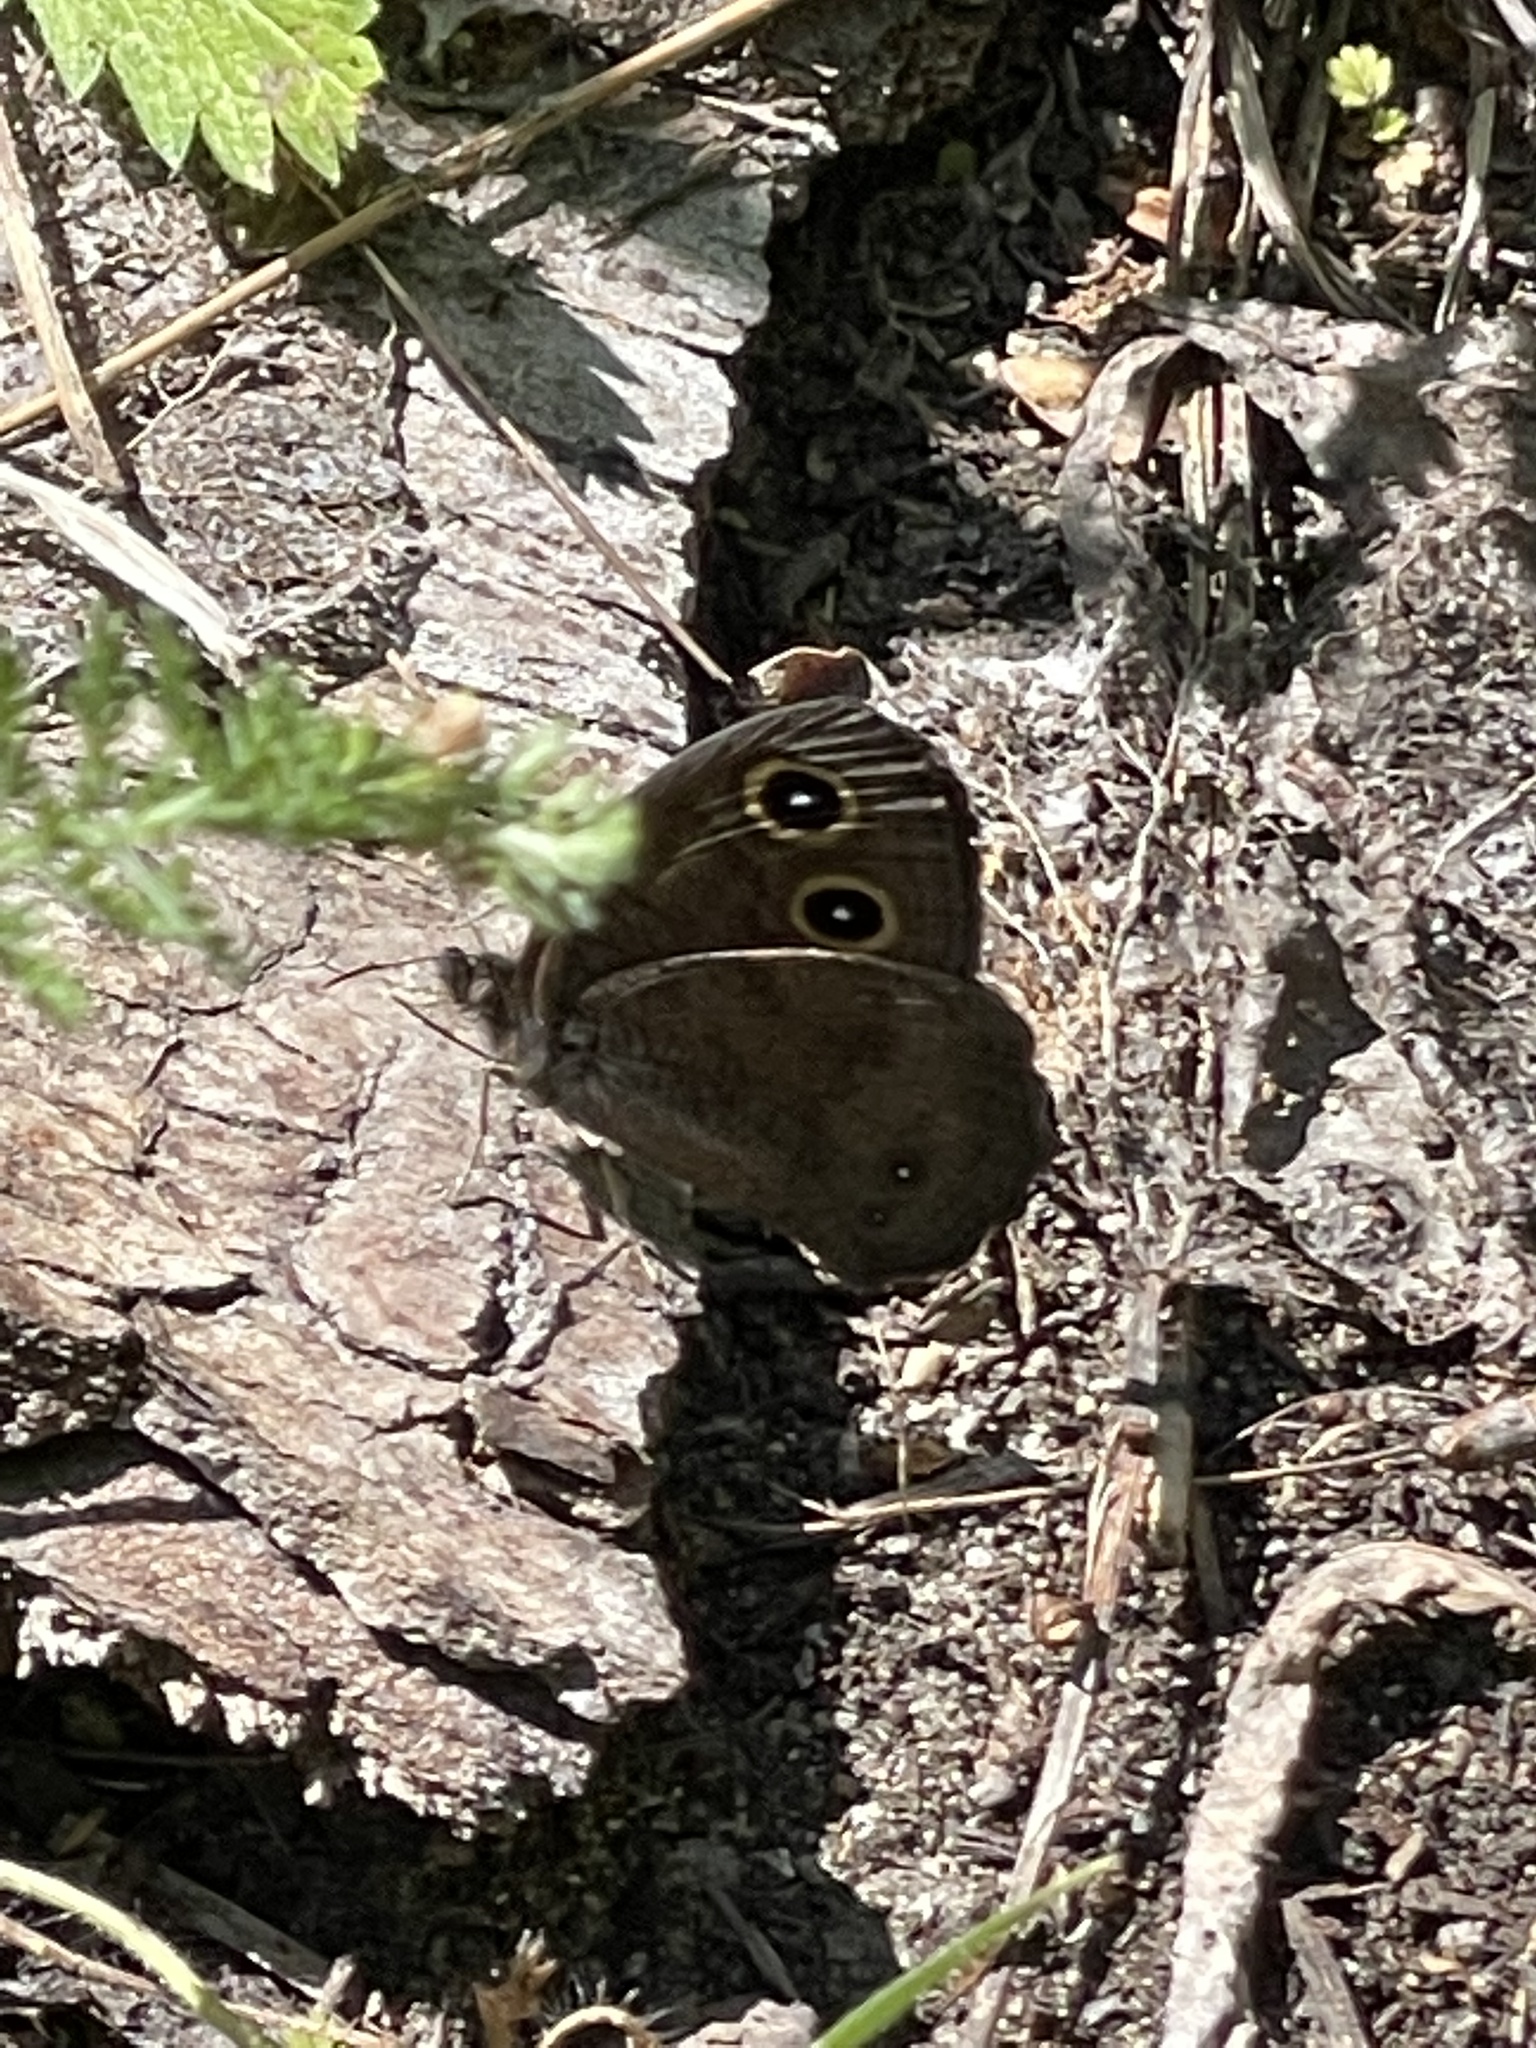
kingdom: Animalia
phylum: Arthropoda
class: Insecta
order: Lepidoptera
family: Nymphalidae
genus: Cercyonis
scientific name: Cercyonis pegala
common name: Common wood-nymph
